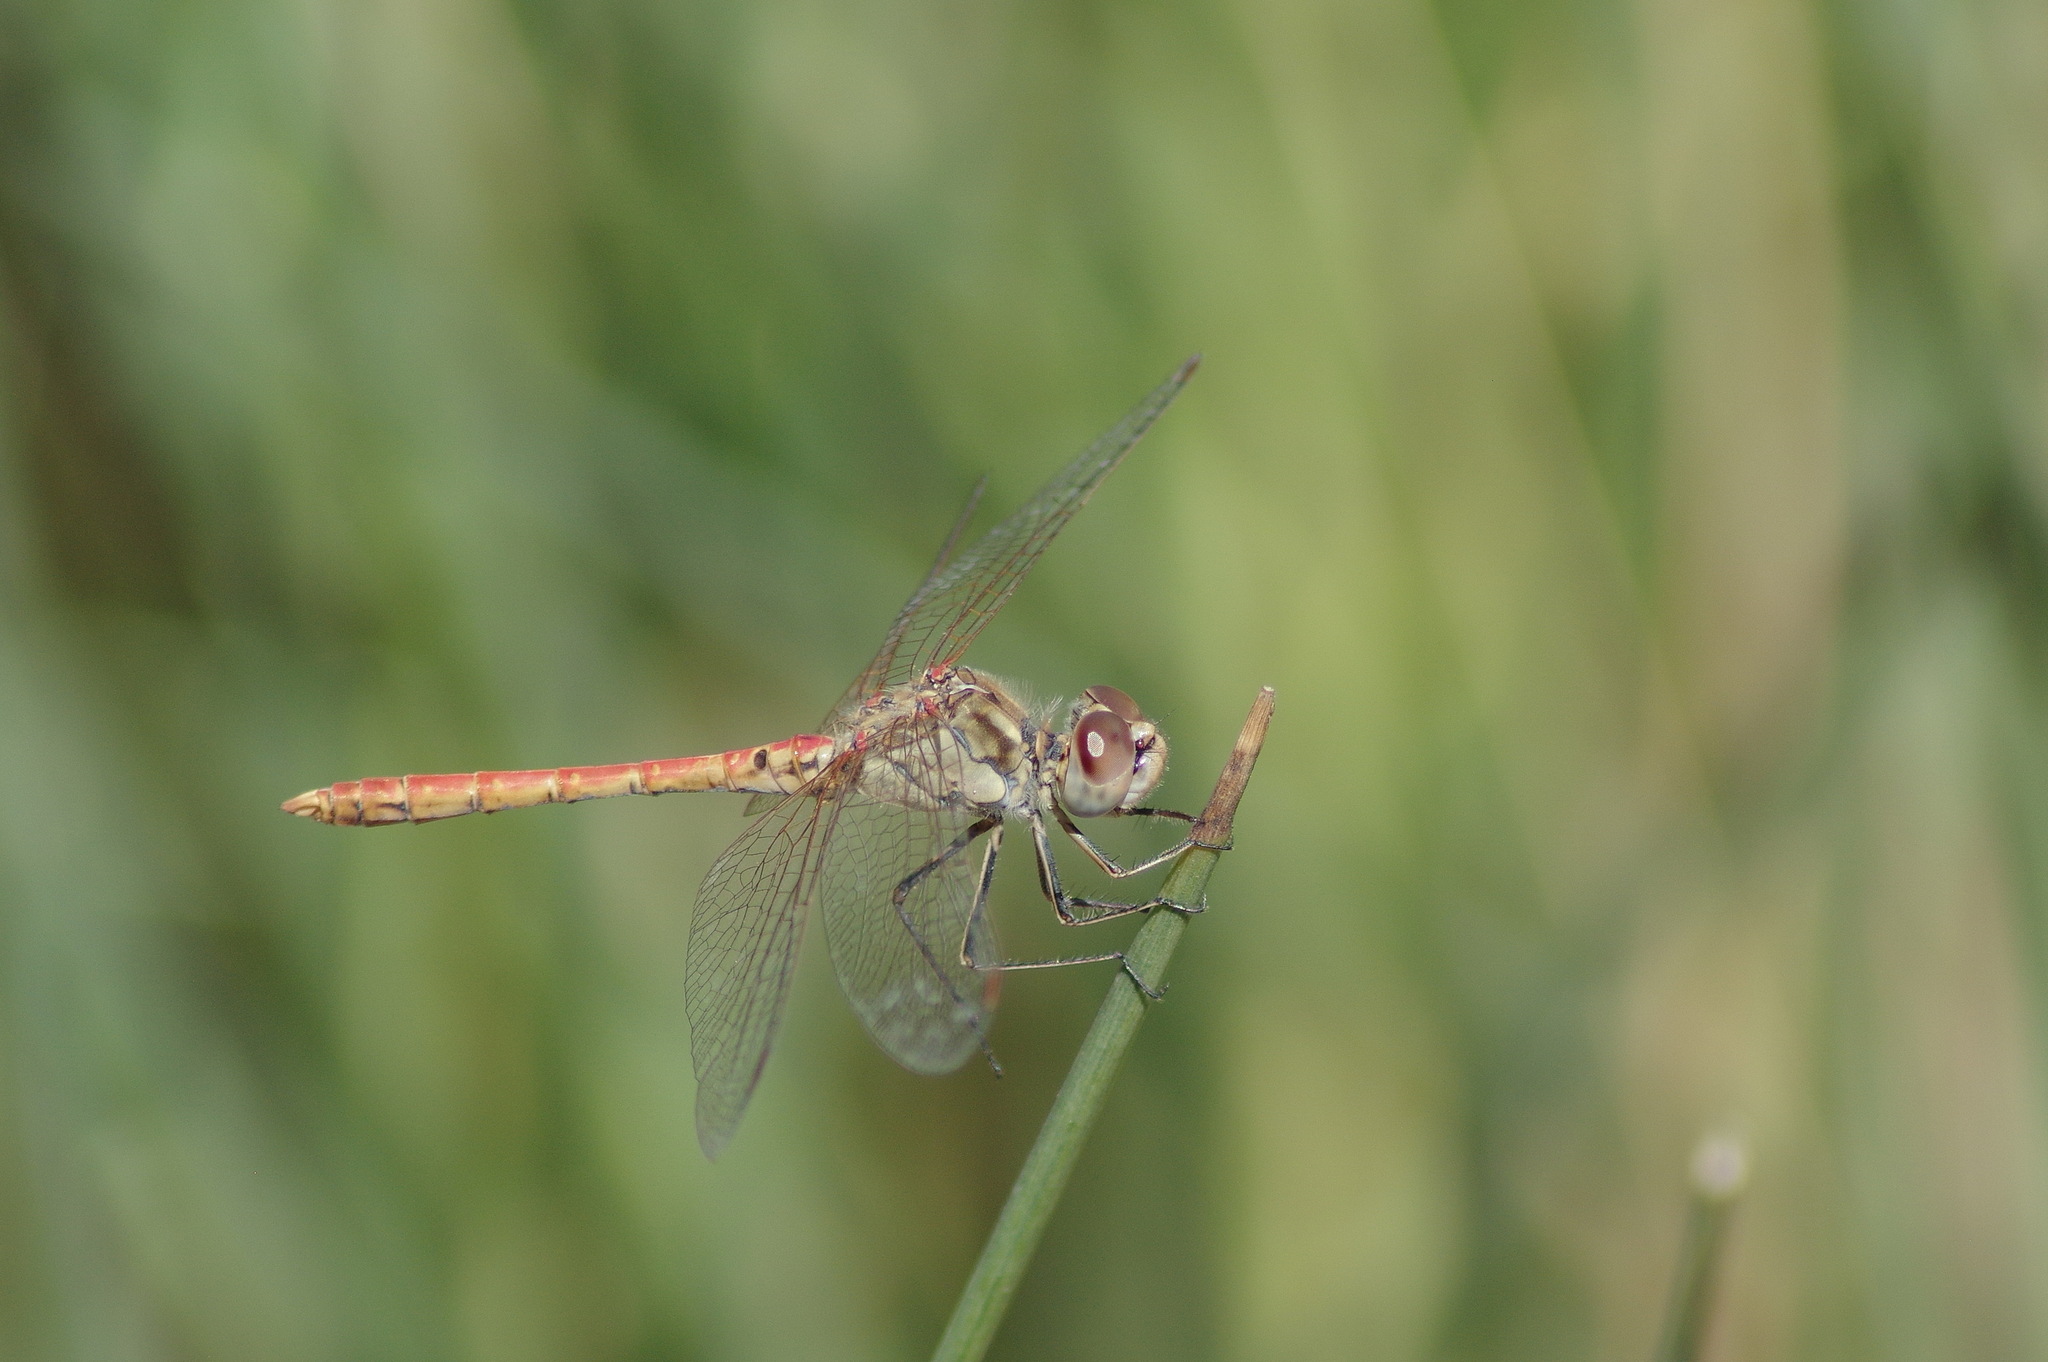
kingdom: Animalia
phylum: Arthropoda
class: Insecta
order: Odonata
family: Libellulidae
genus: Sympetrum
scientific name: Sympetrum sinaiticum
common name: Desert darter
